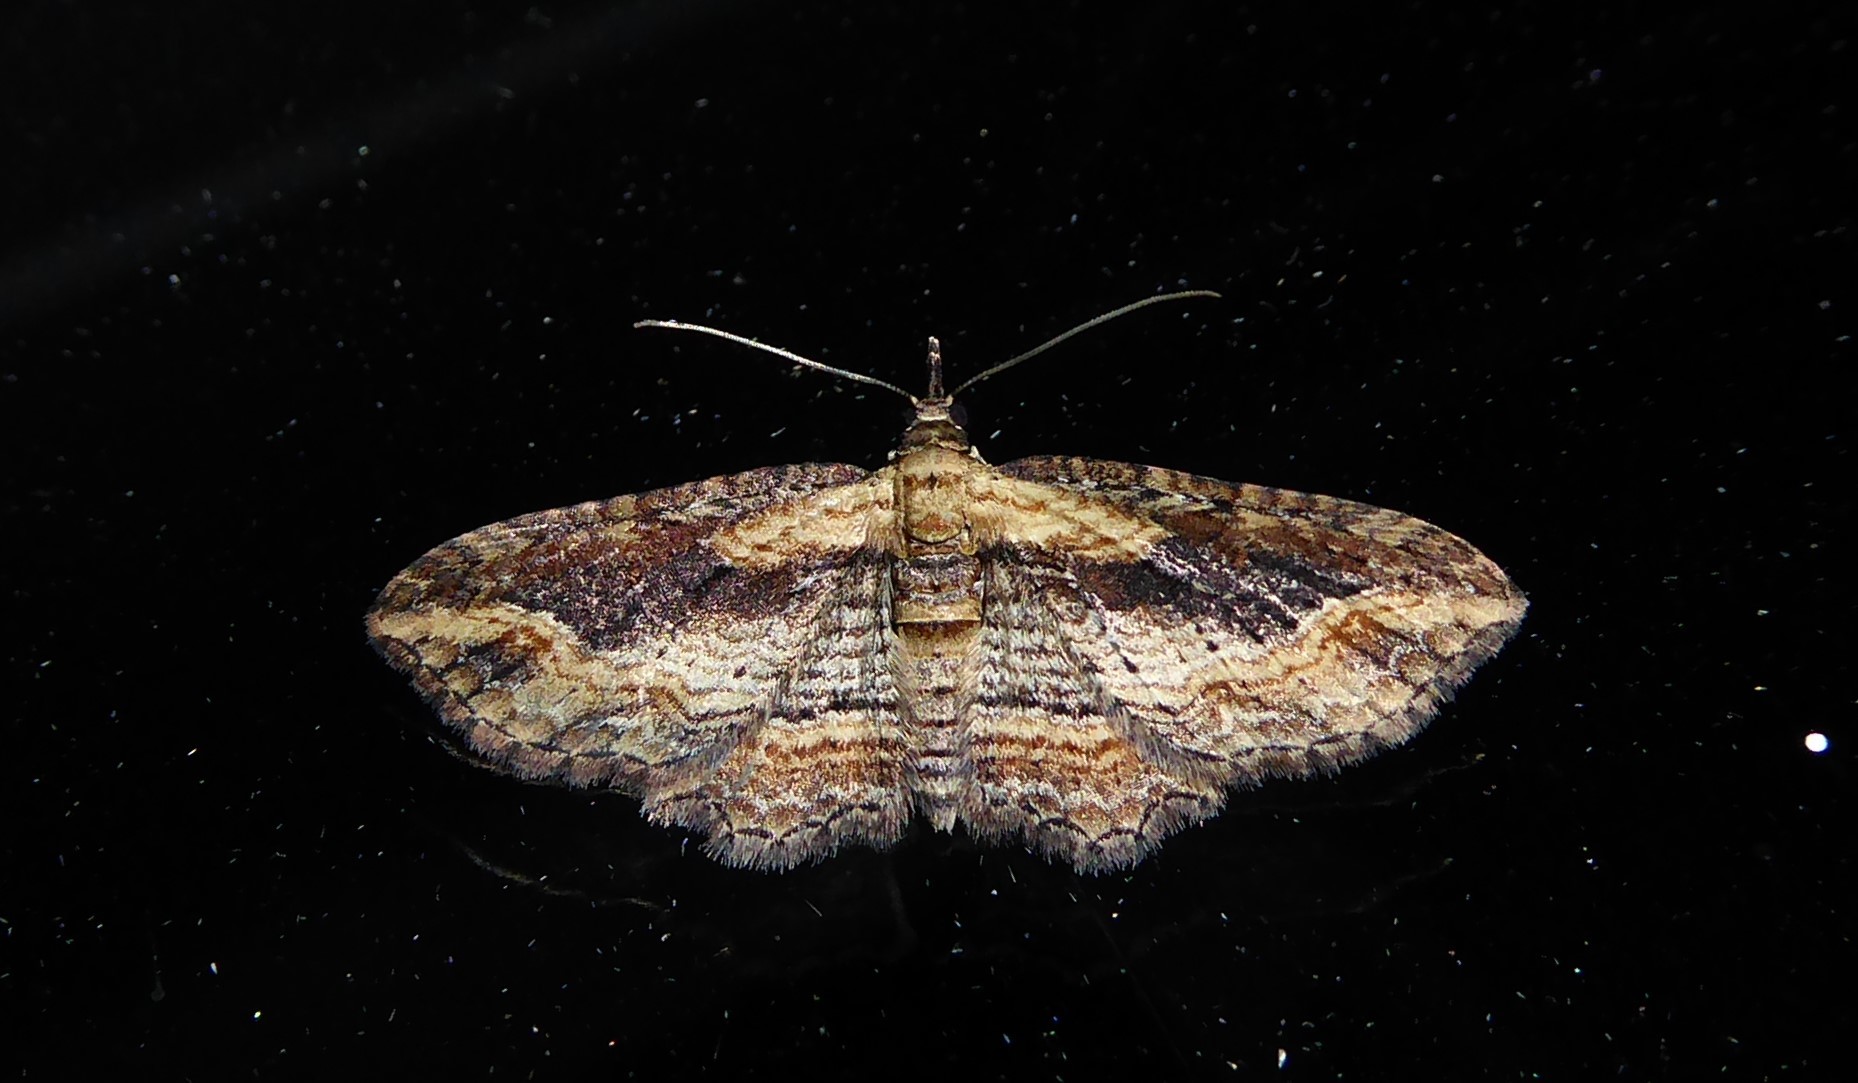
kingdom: Animalia
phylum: Arthropoda
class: Insecta
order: Lepidoptera
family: Geometridae
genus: Chloroclystis
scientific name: Chloroclystis filata
